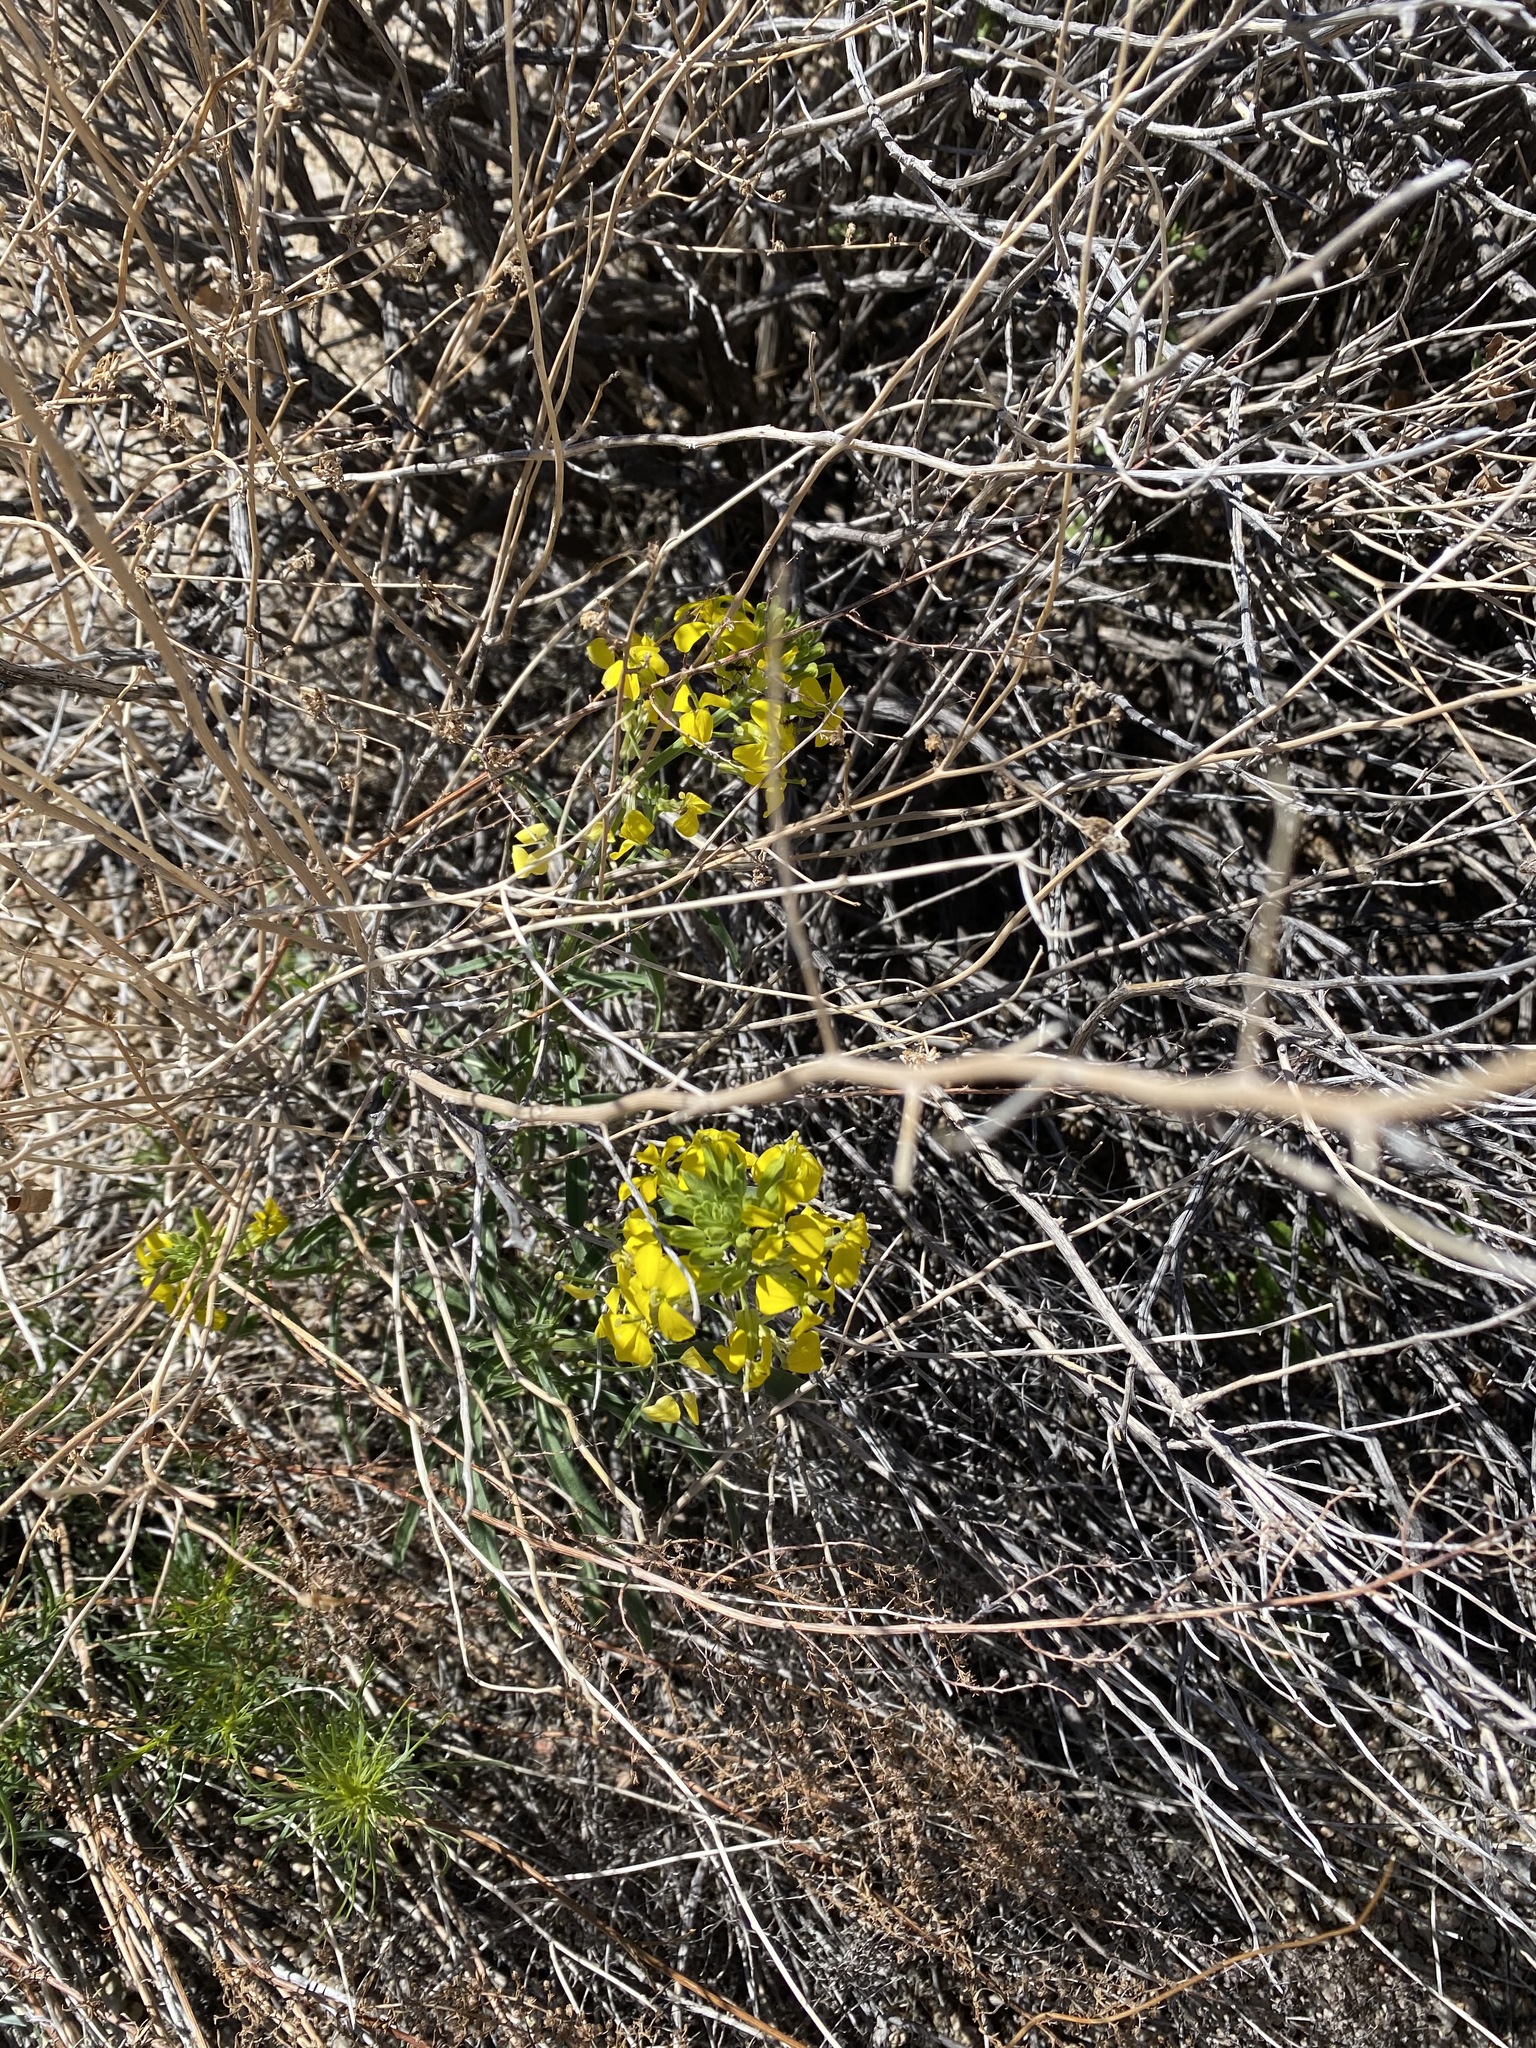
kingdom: Plantae
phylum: Tracheophyta
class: Magnoliopsida
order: Brassicales
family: Brassicaceae
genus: Erysimum
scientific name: Erysimum capitatum
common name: Western wallflower
